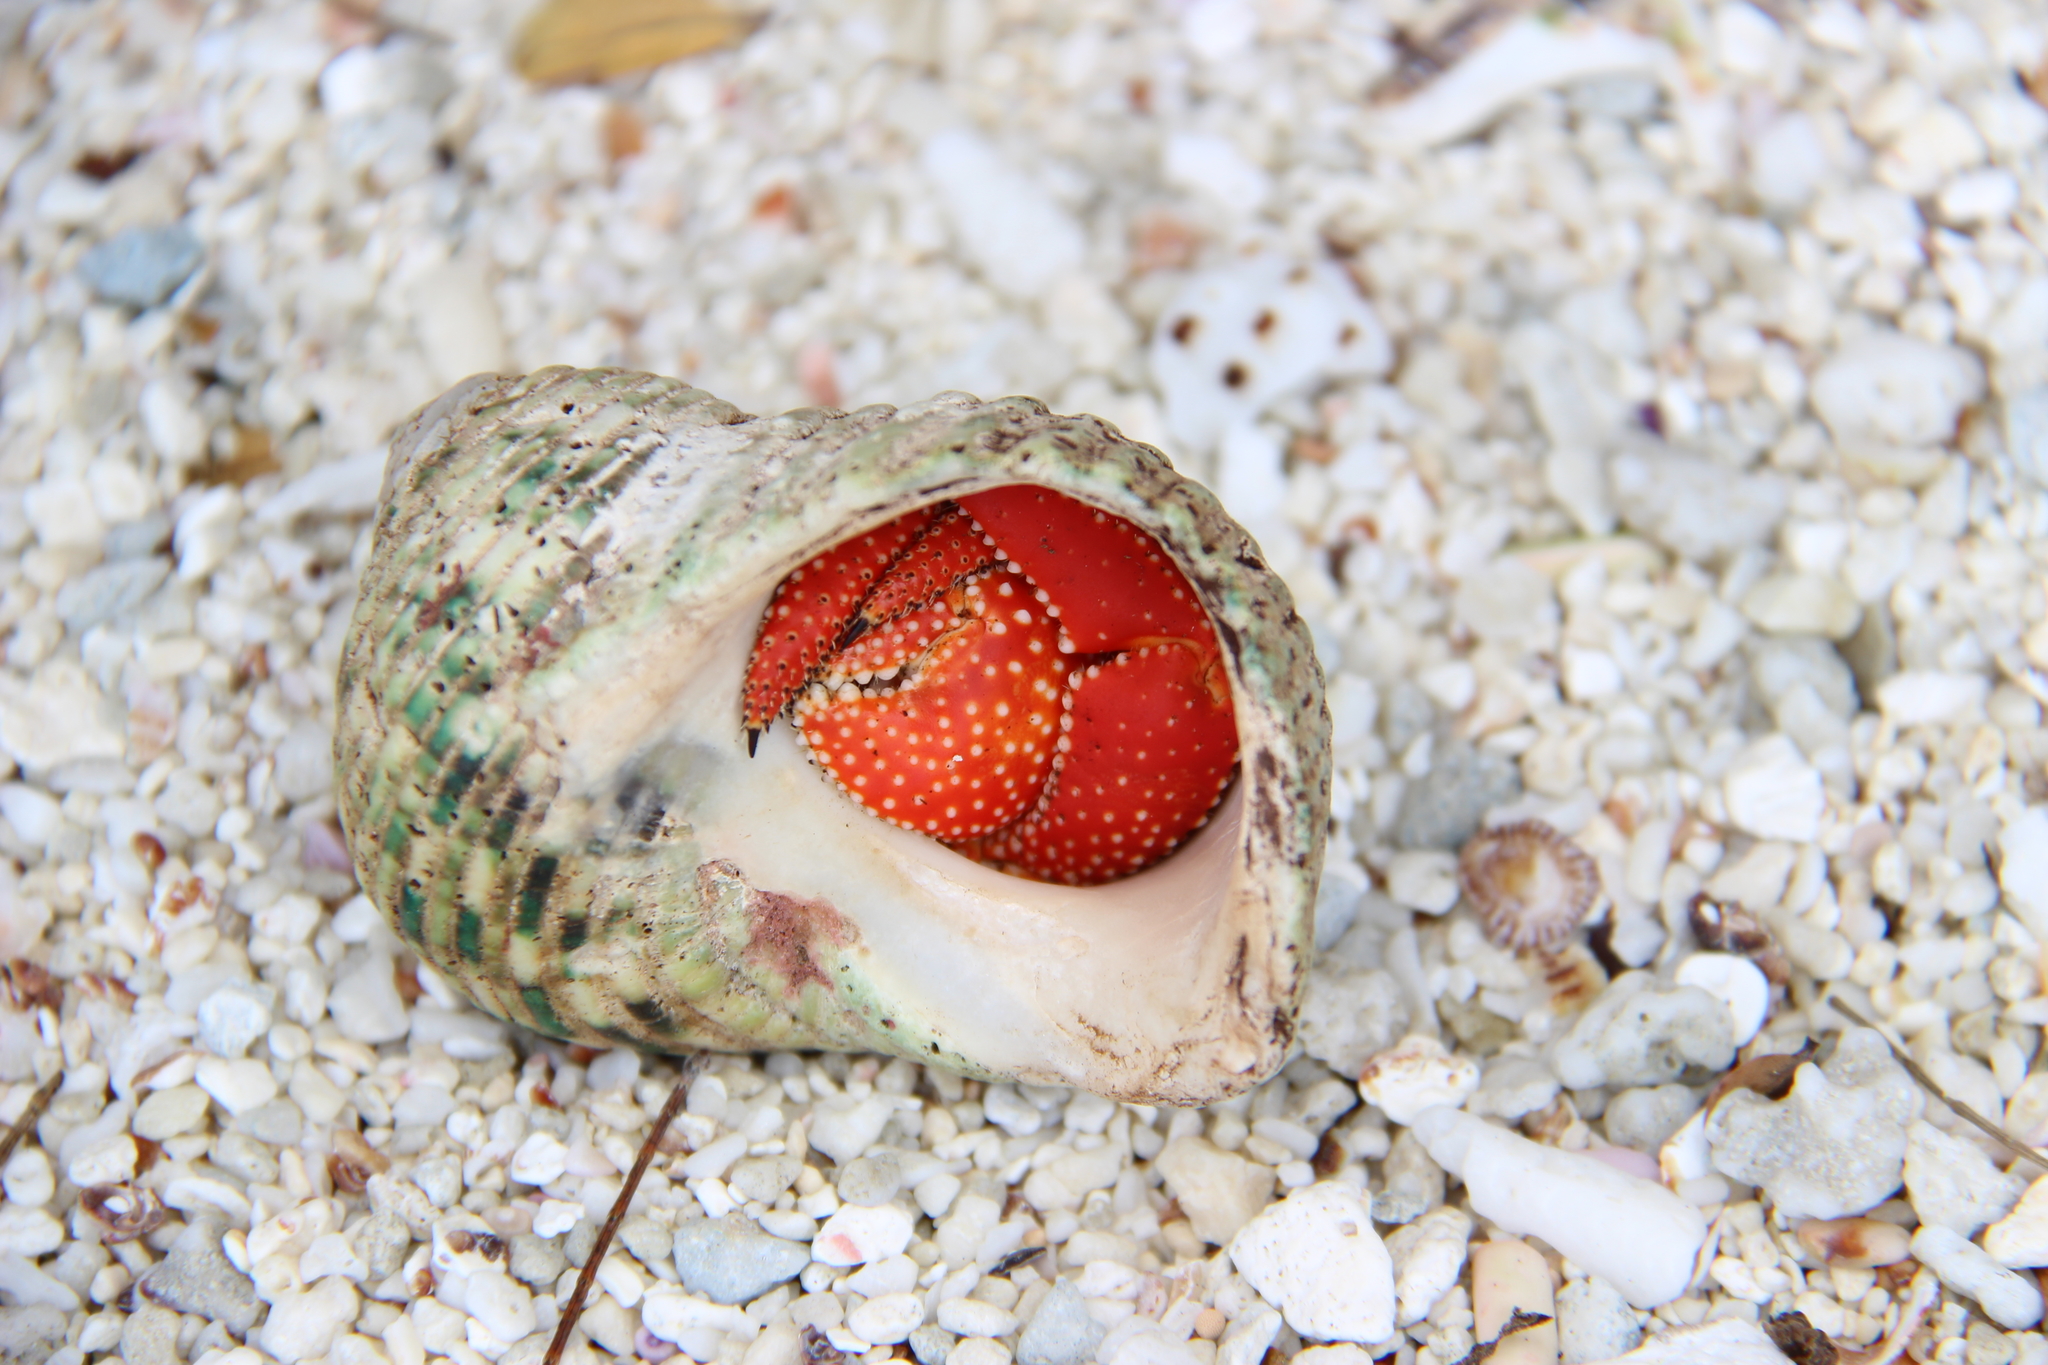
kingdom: Animalia
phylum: Arthropoda
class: Malacostraca
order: Decapoda
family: Coenobitidae
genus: Coenobita
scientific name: Coenobita perlatus
